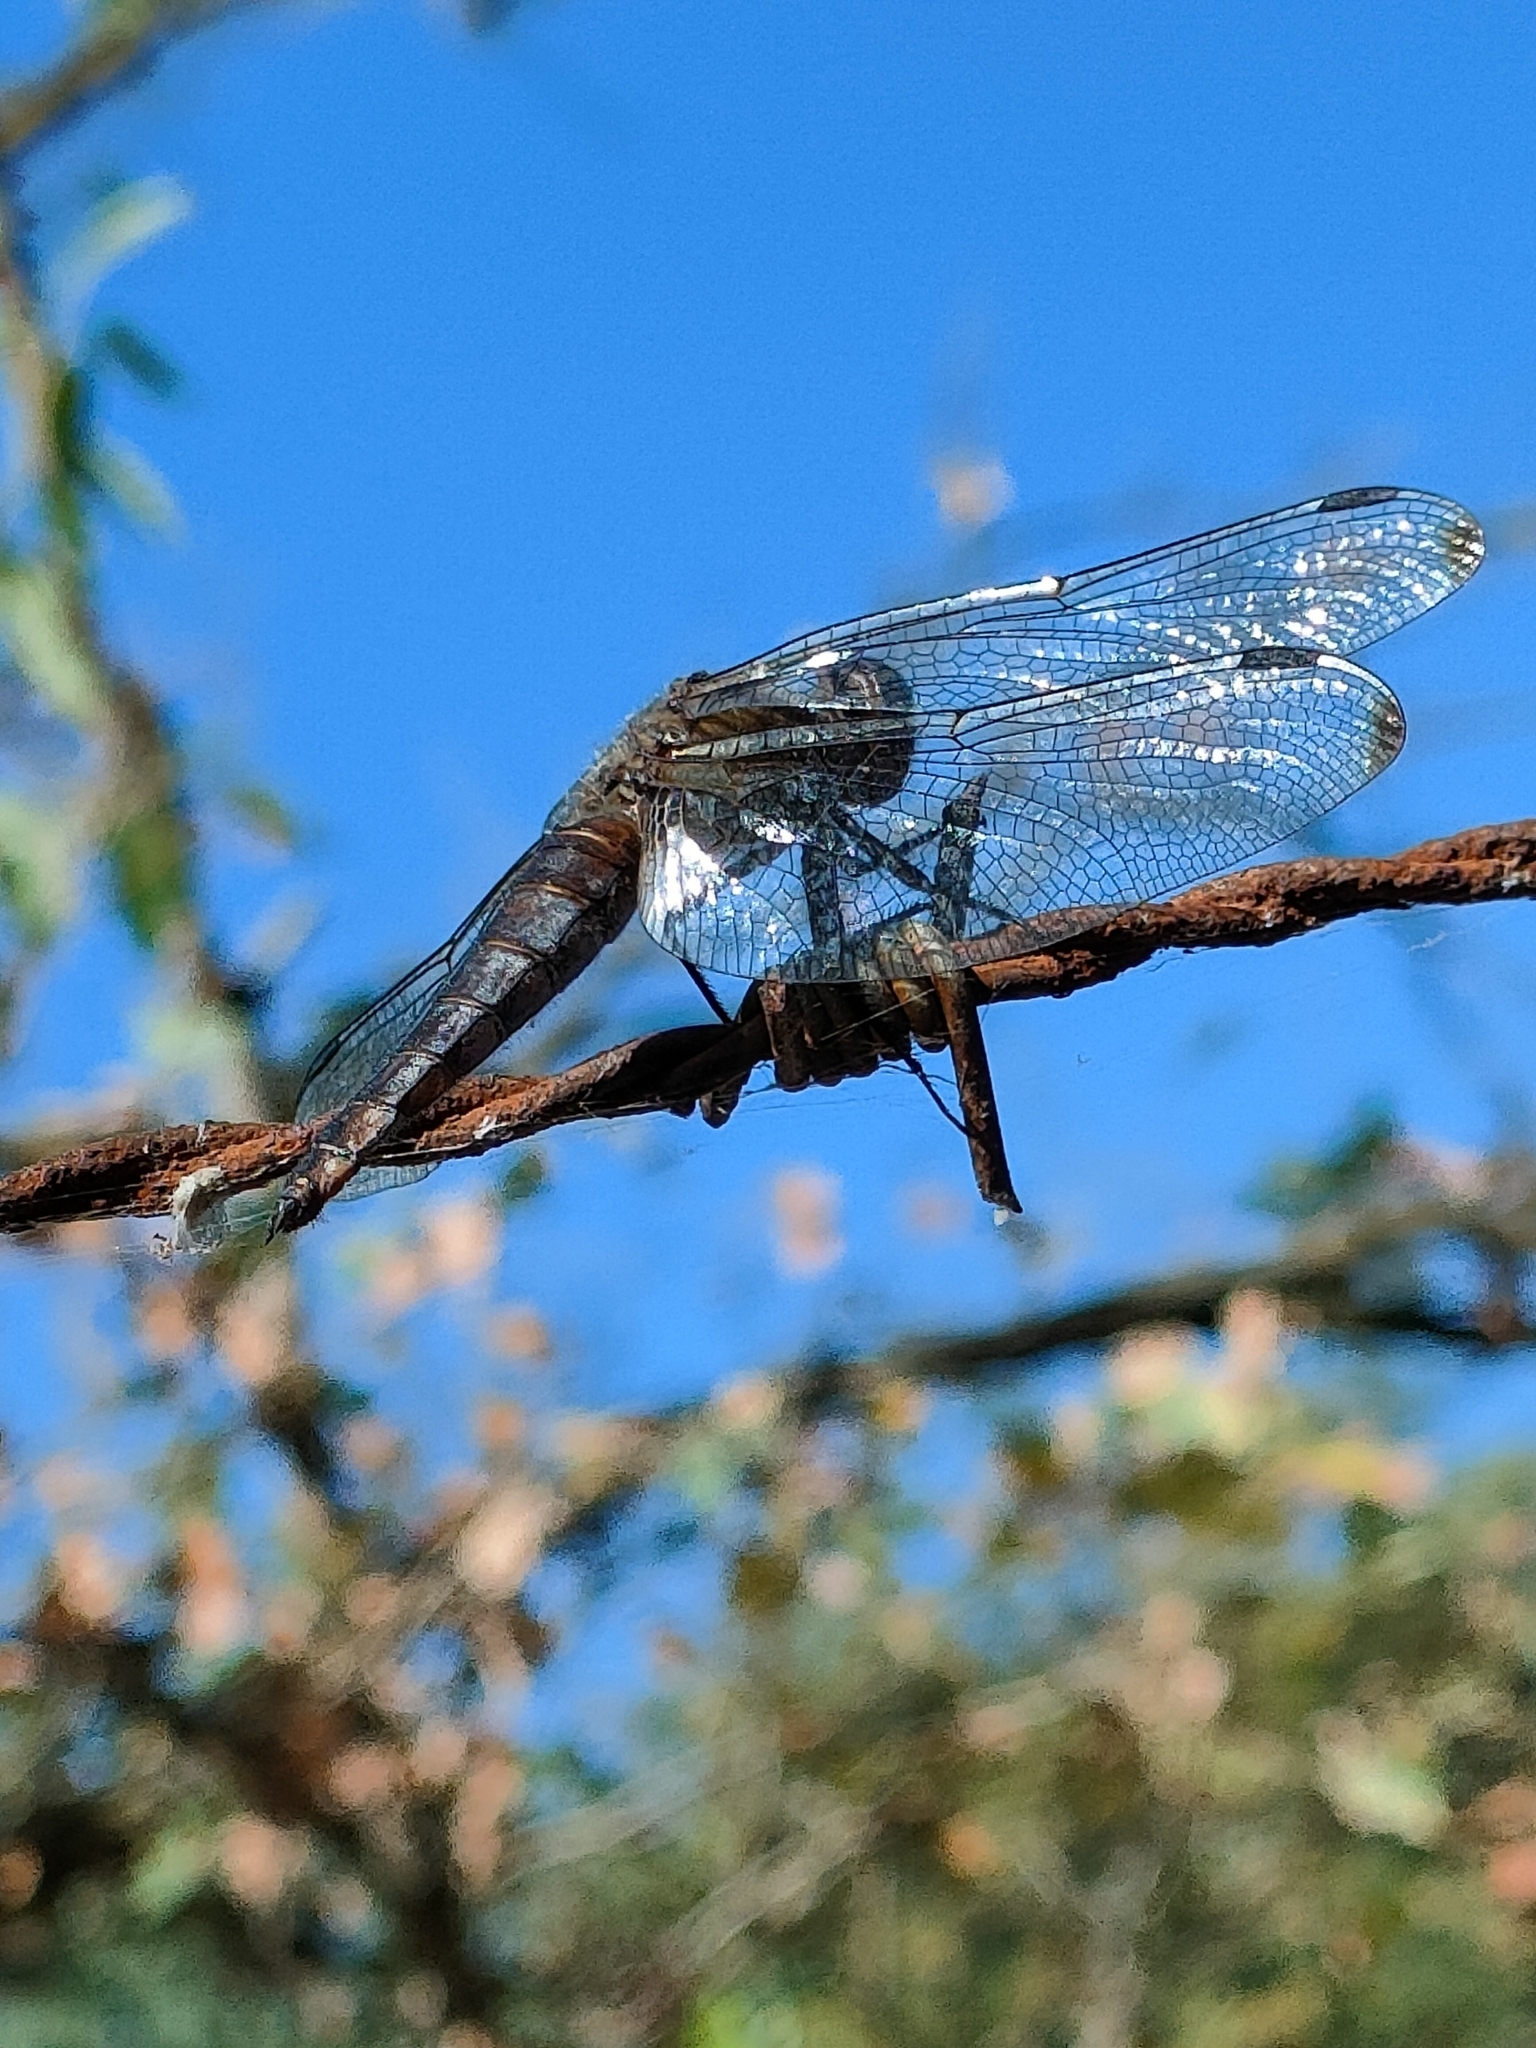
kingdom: Animalia
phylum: Arthropoda
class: Insecta
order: Odonata
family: Libellulidae
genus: Libellula
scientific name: Libellula fulva
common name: Blue chaser
